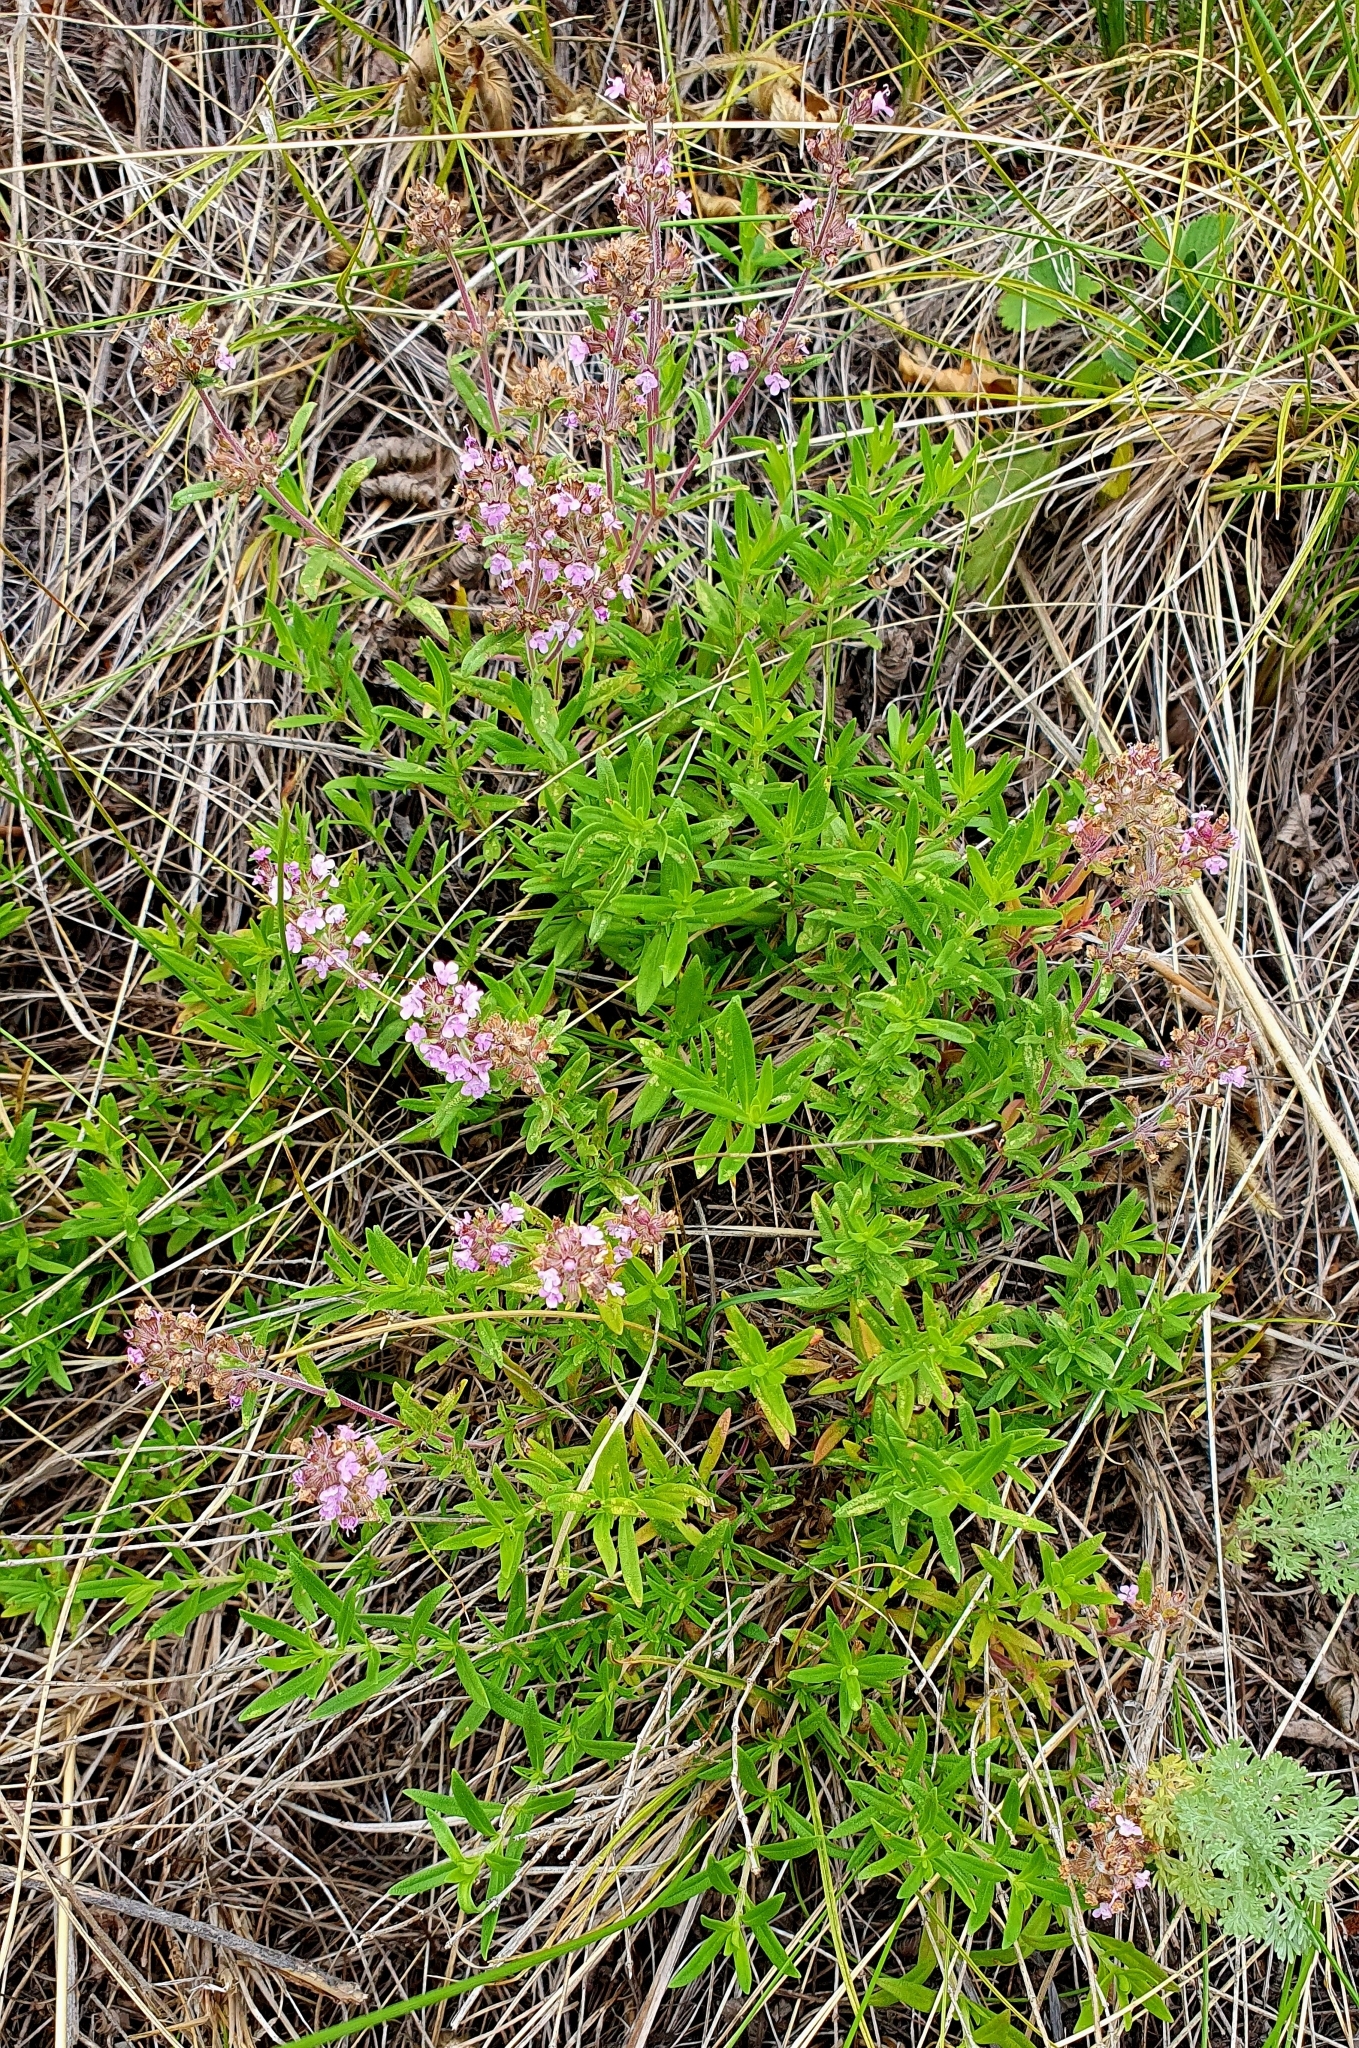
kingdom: Plantae
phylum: Tracheophyta
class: Magnoliopsida
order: Lamiales
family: Lamiaceae
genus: Thymus
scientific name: Thymus pannonicus
